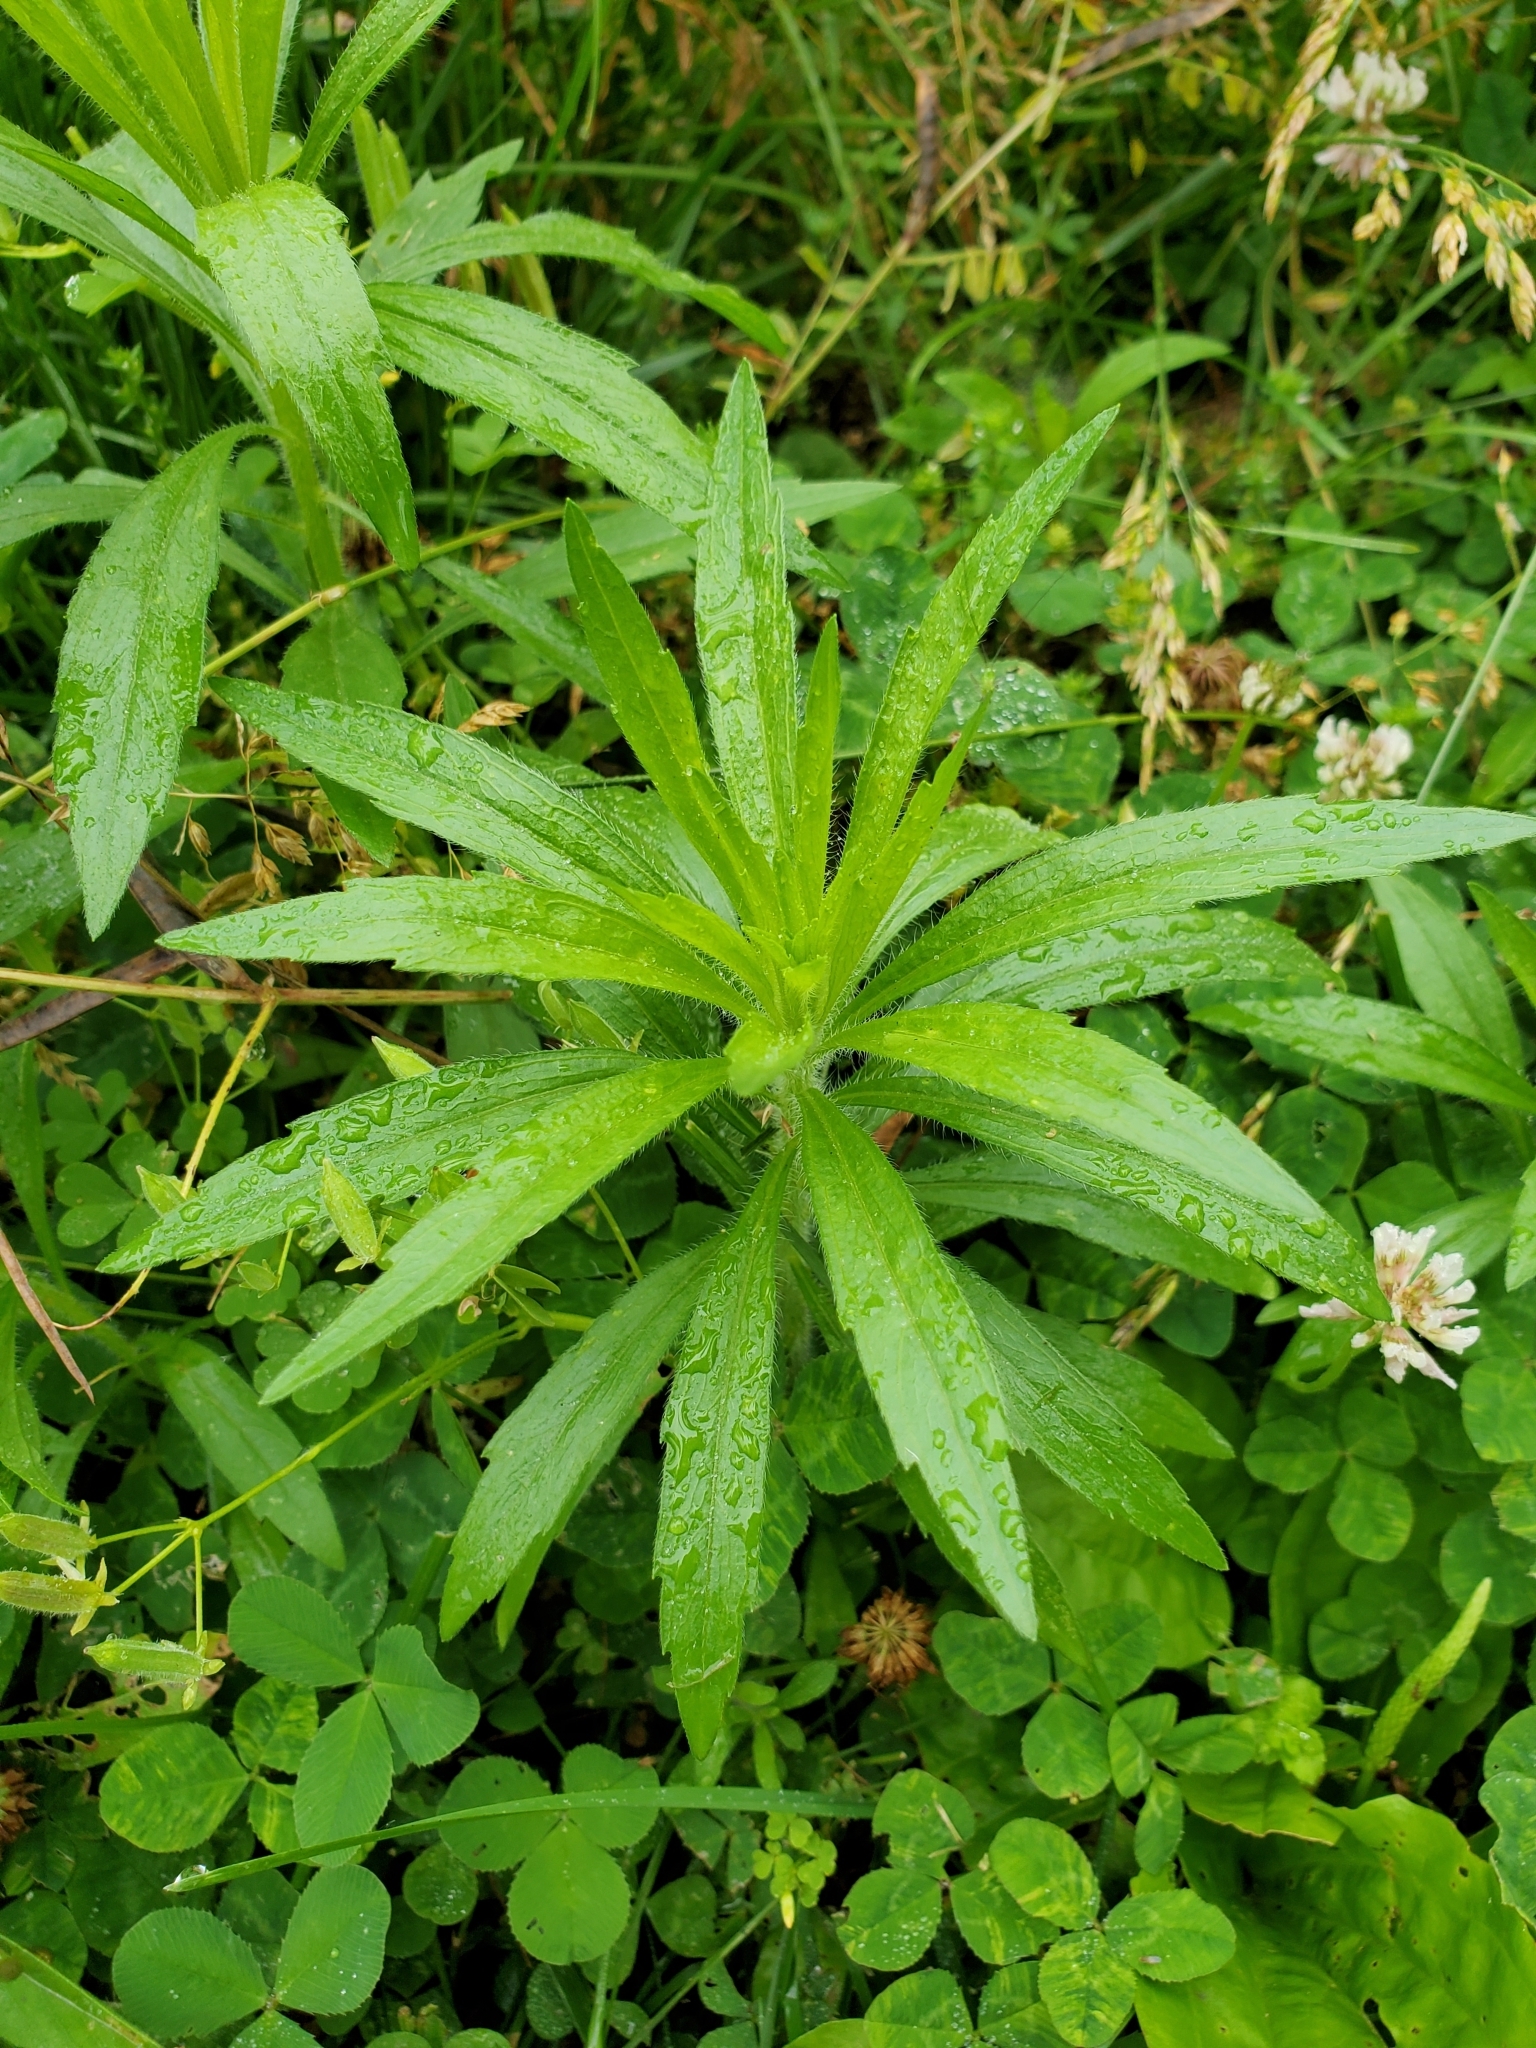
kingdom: Plantae
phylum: Tracheophyta
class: Magnoliopsida
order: Asterales
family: Asteraceae
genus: Erigeron
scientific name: Erigeron canadensis
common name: Canadian fleabane
